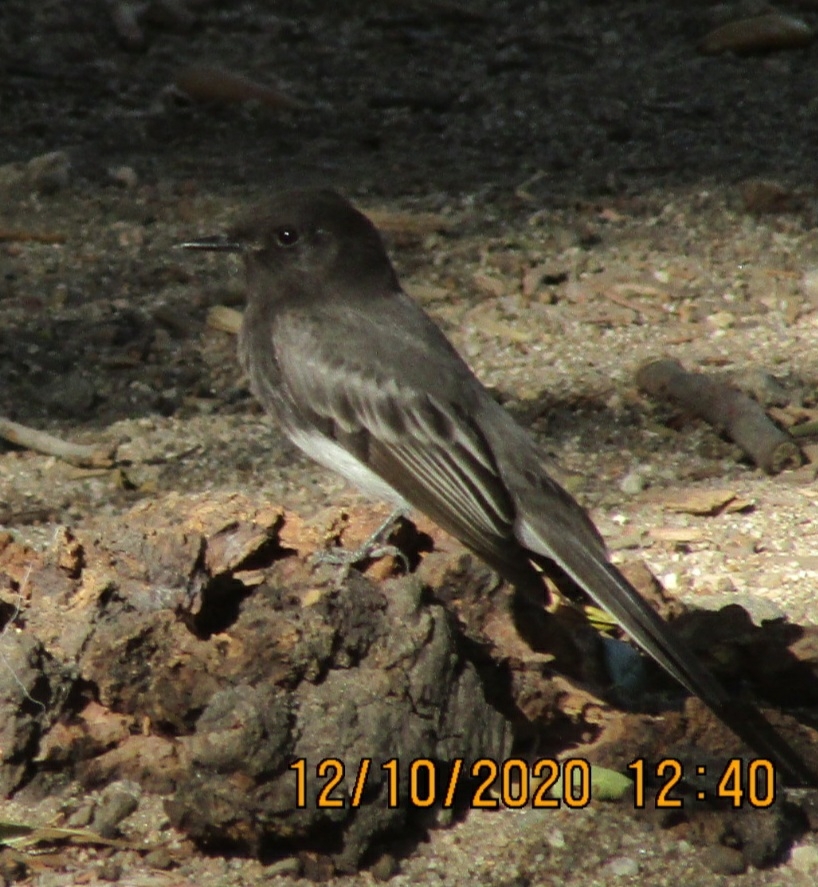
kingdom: Animalia
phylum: Chordata
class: Aves
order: Passeriformes
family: Tyrannidae
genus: Sayornis
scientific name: Sayornis nigricans
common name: Black phoebe
